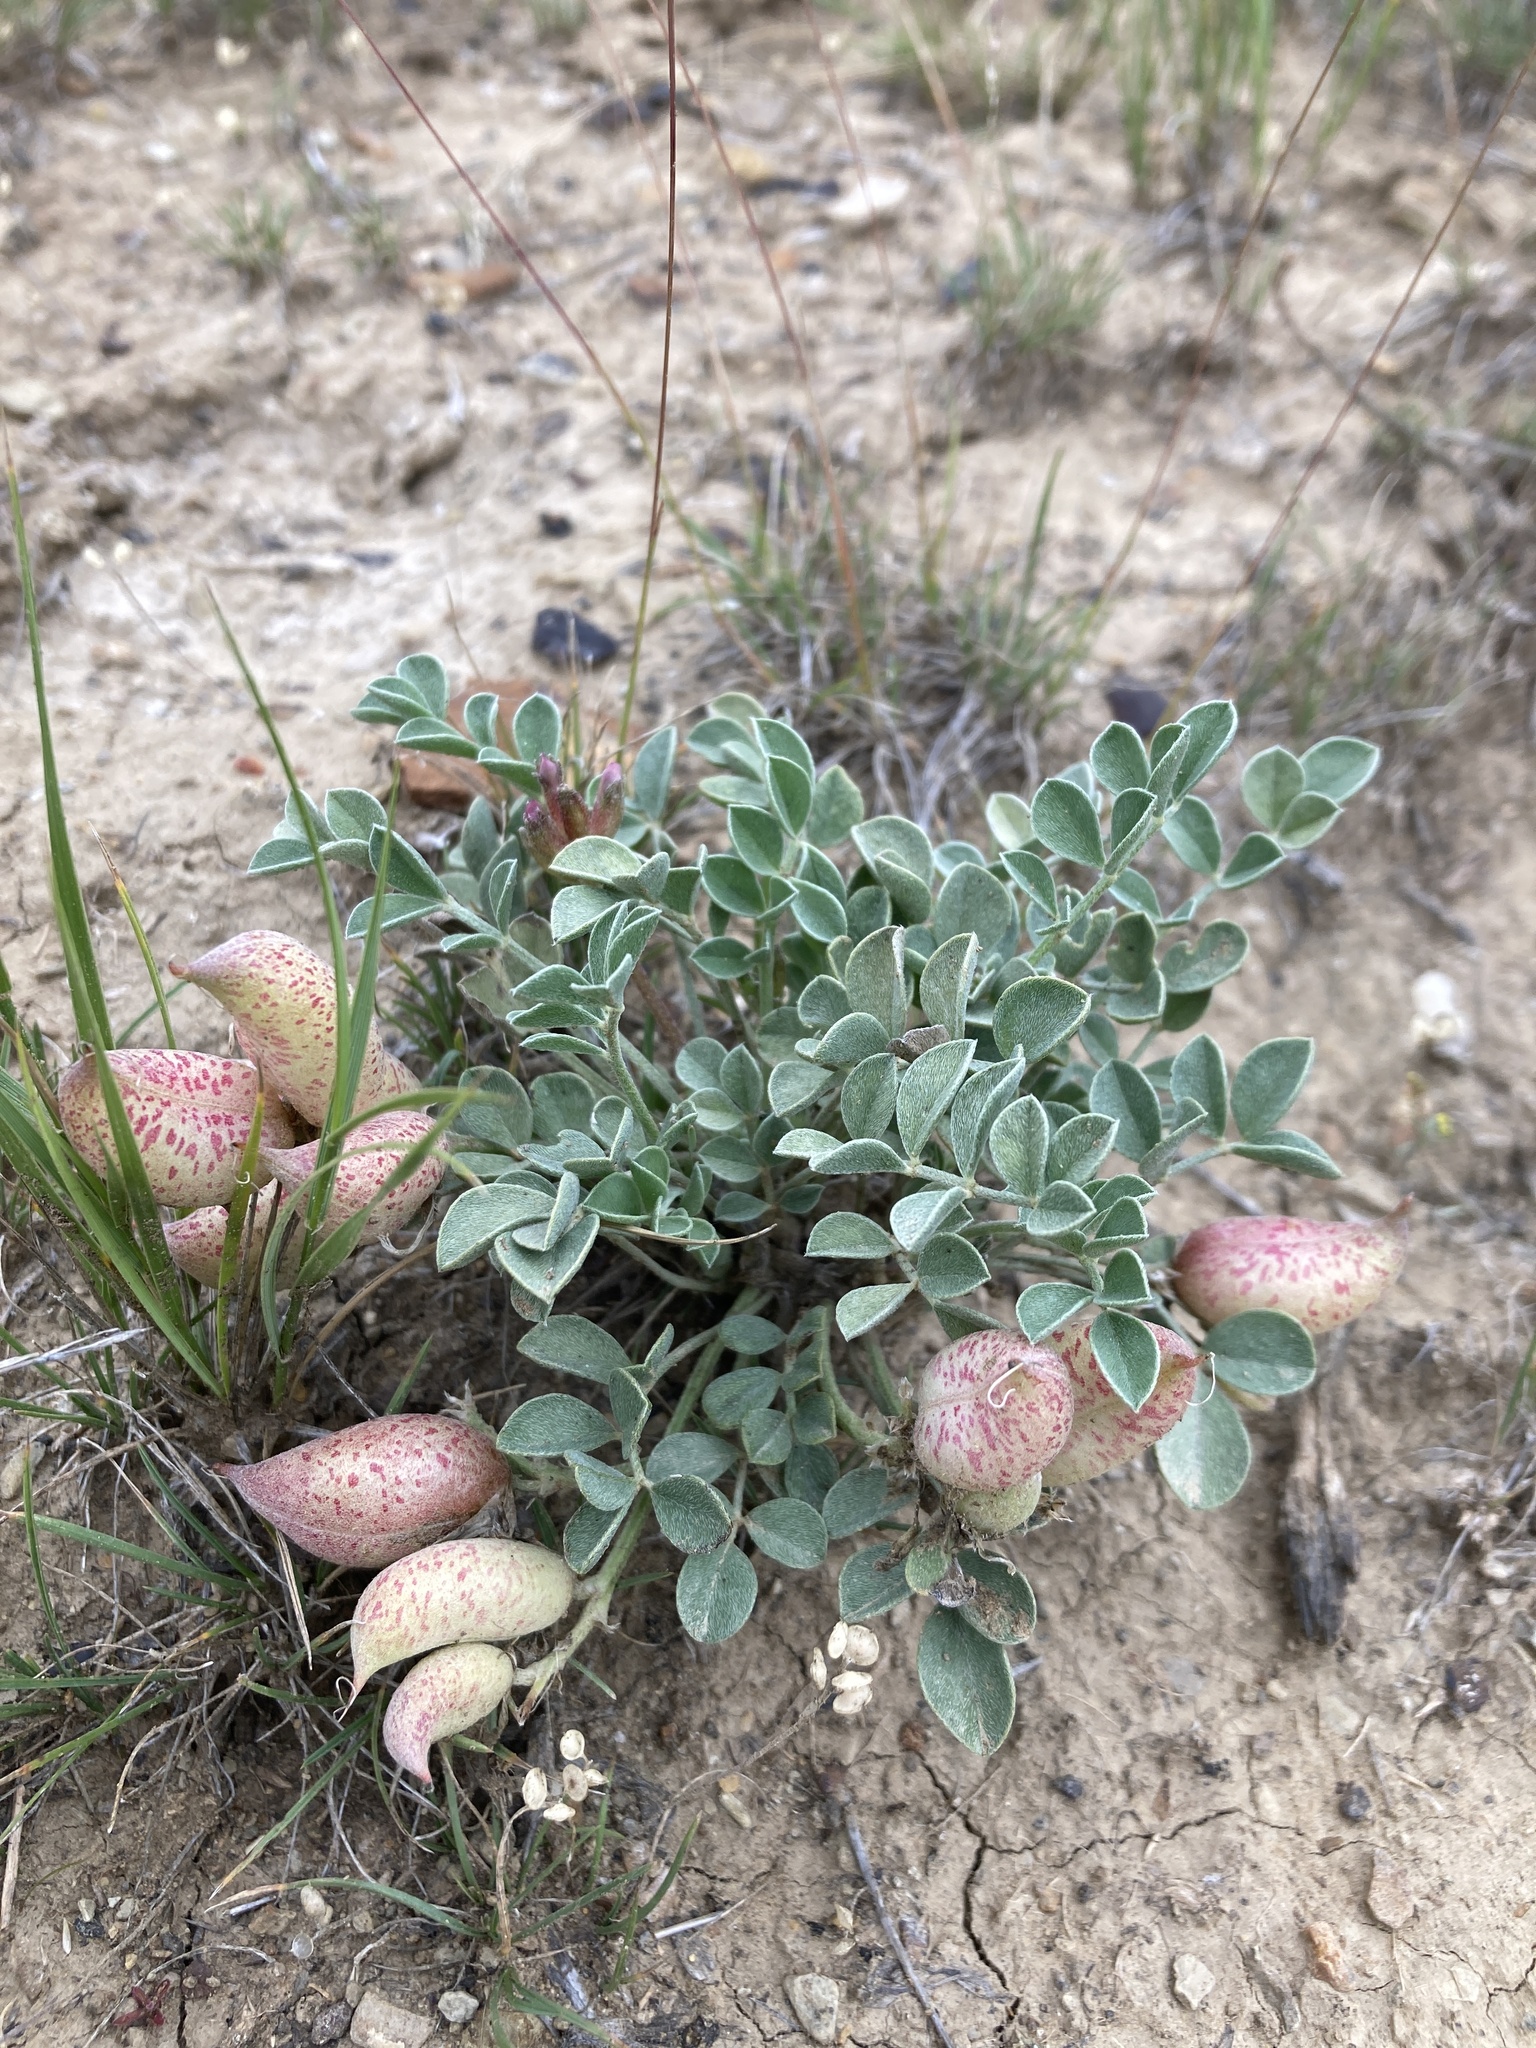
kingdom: Plantae
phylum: Tracheophyta
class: Magnoliopsida
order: Fabales
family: Fabaceae
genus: Astragalus
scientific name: Astragalus chamaeleuce
